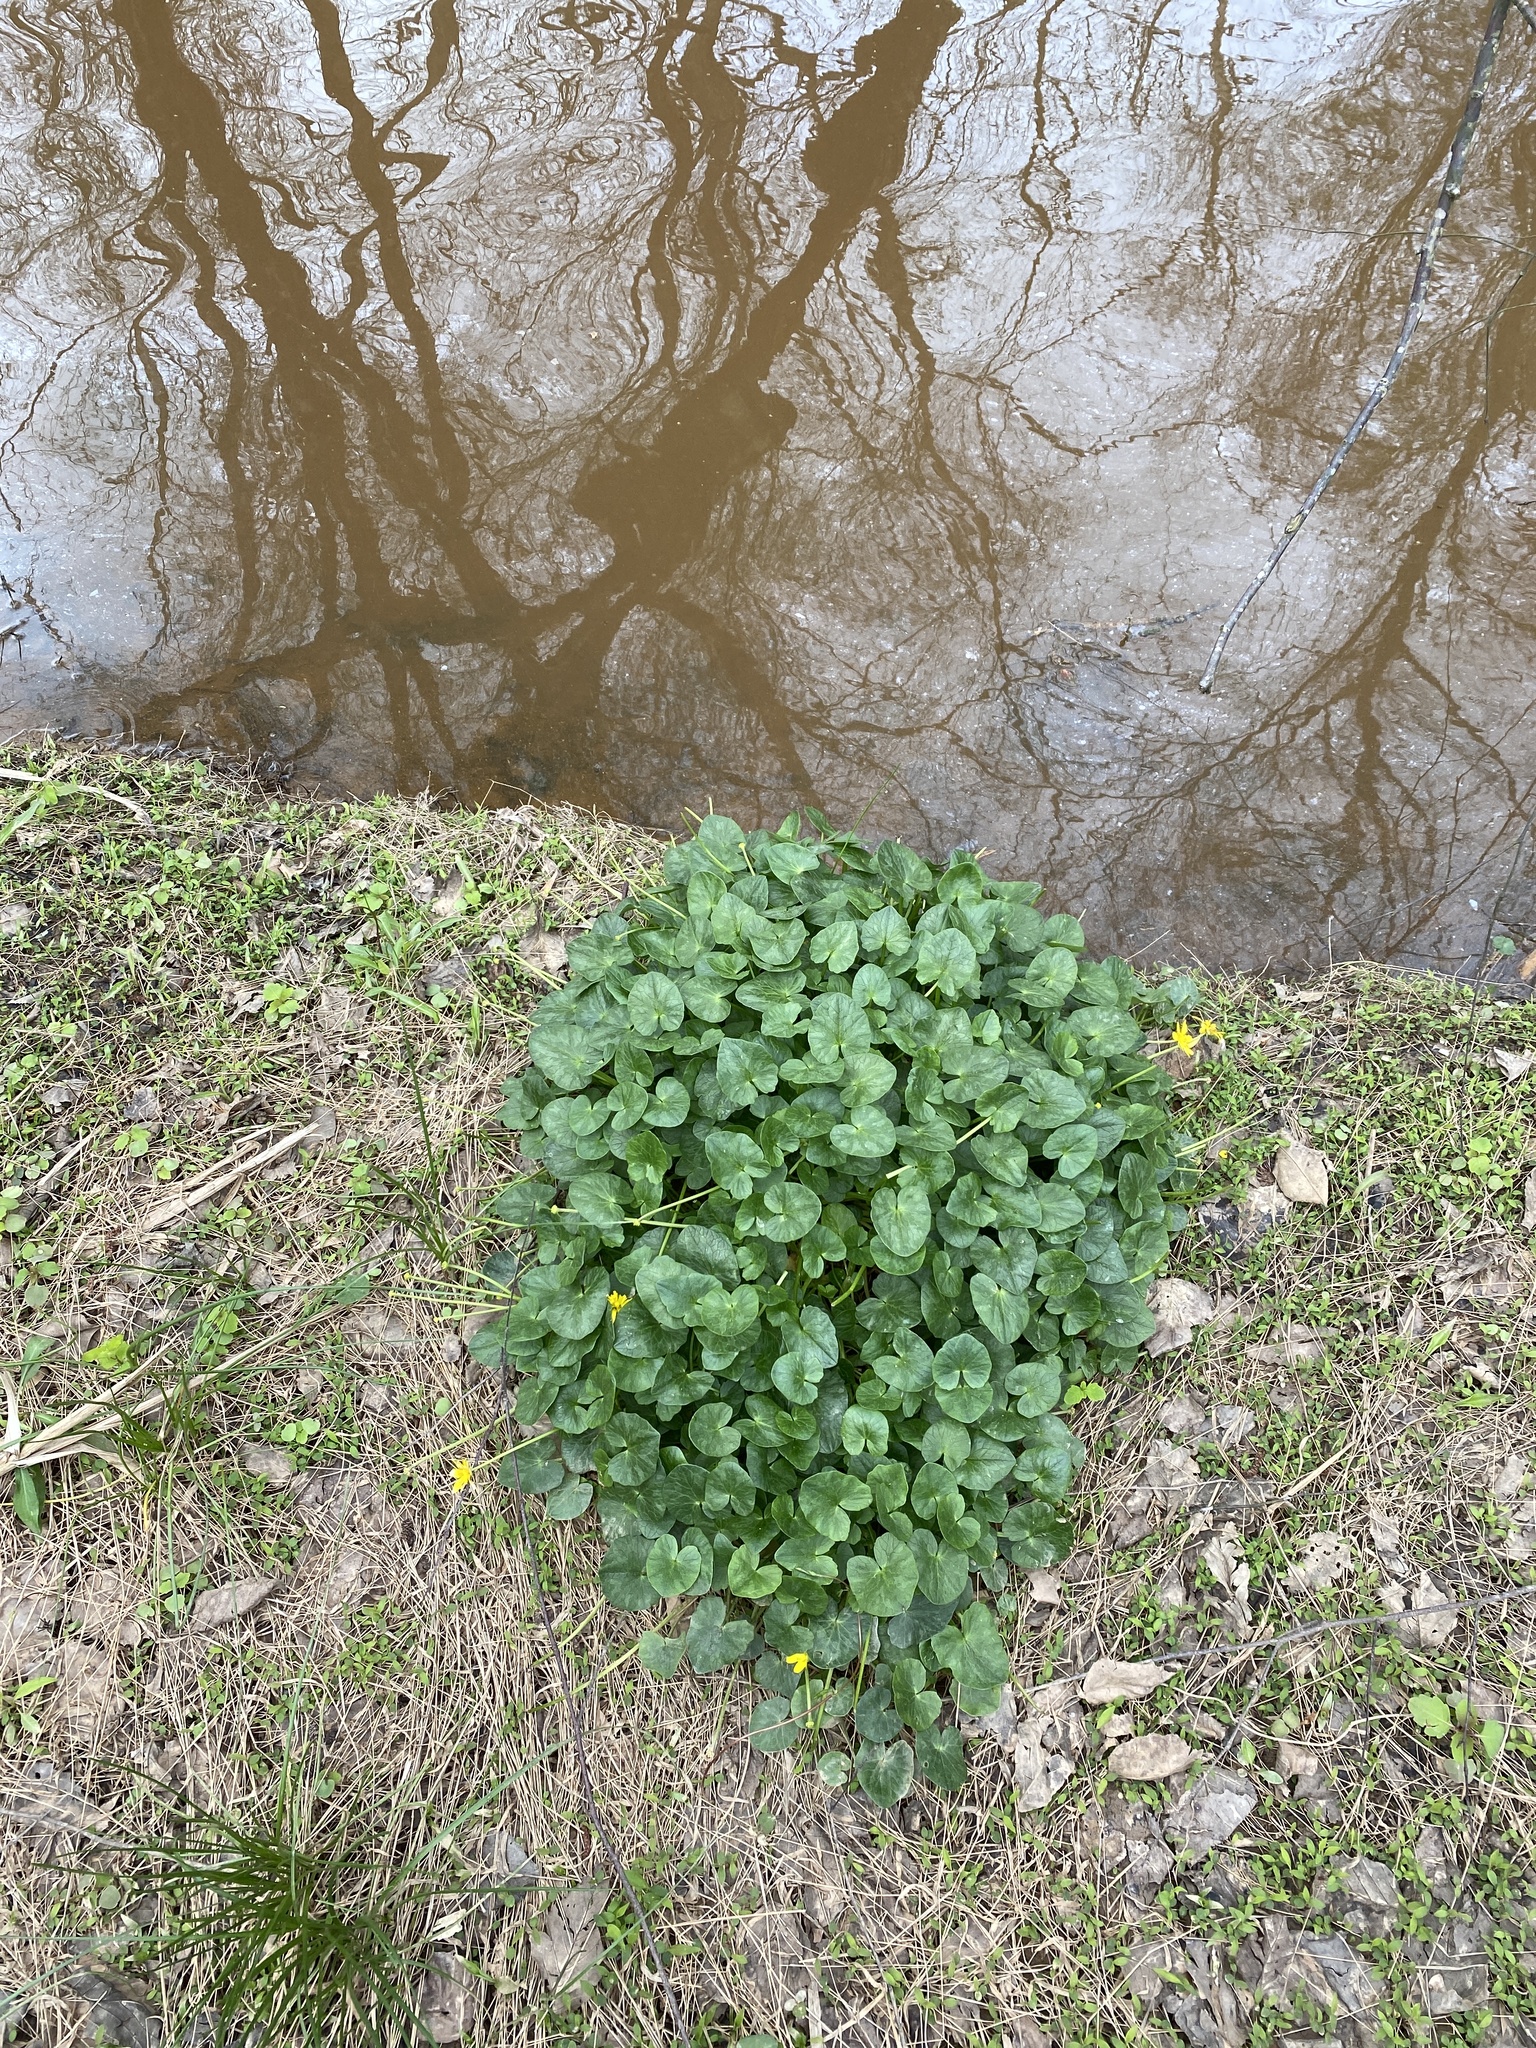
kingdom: Plantae
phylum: Tracheophyta
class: Magnoliopsida
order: Ranunculales
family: Ranunculaceae
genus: Ficaria
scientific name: Ficaria verna
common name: Lesser celandine
